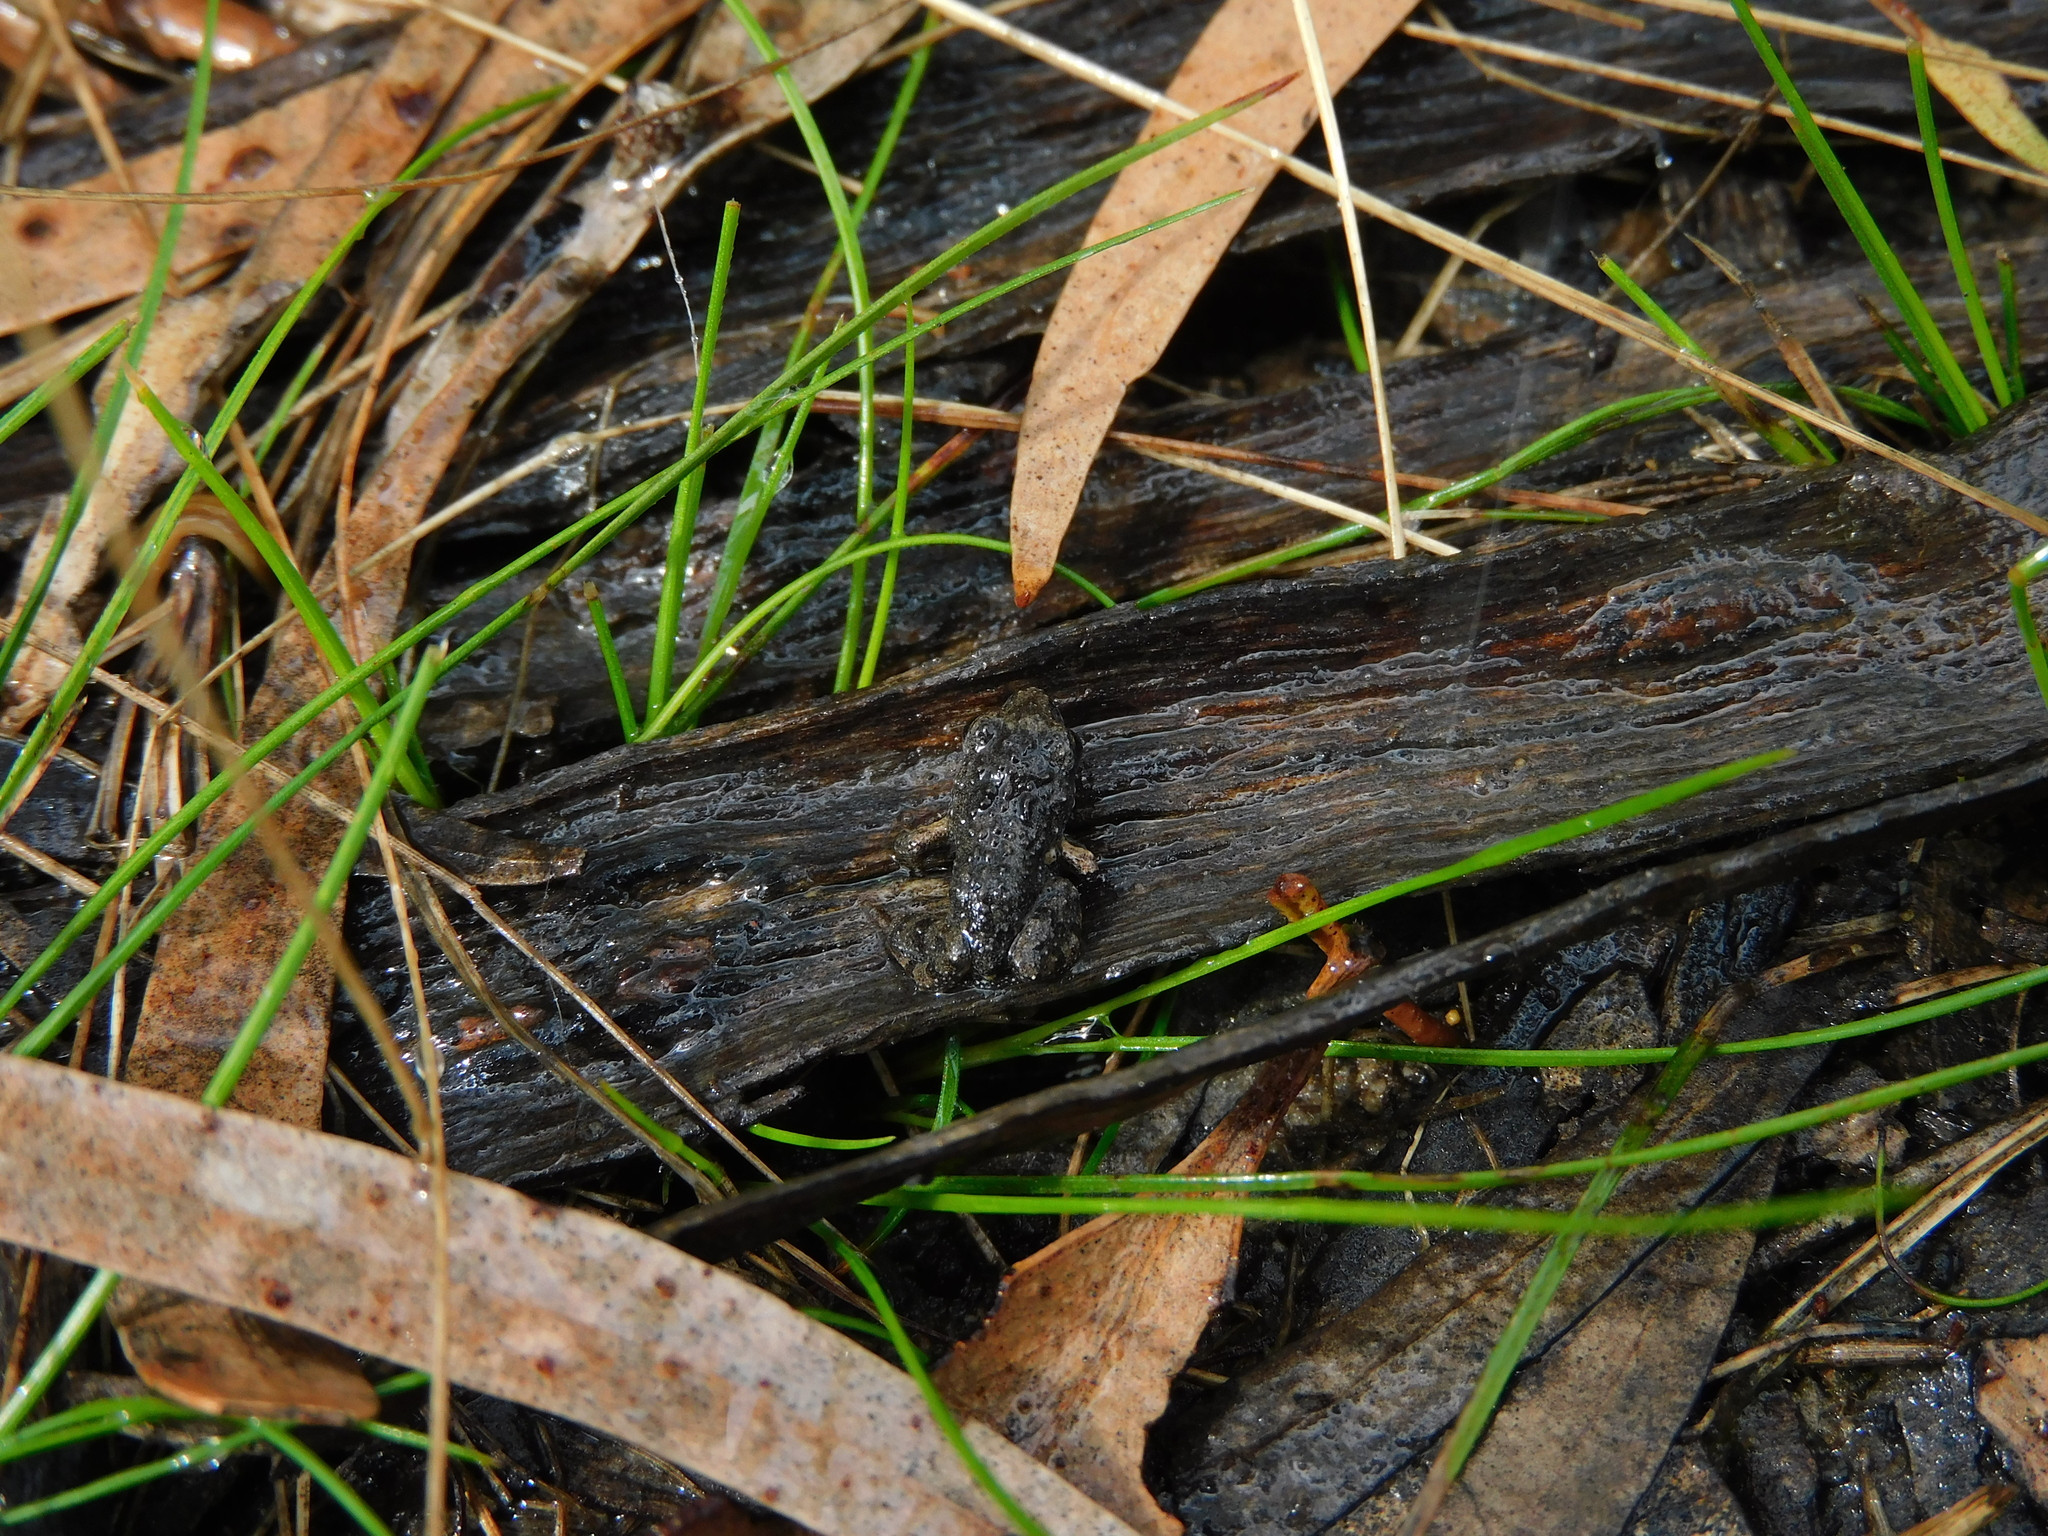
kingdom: Animalia
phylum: Chordata
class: Amphibia
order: Anura
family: Myobatrachidae
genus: Crinia
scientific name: Crinia signifera
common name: Brown froglet
